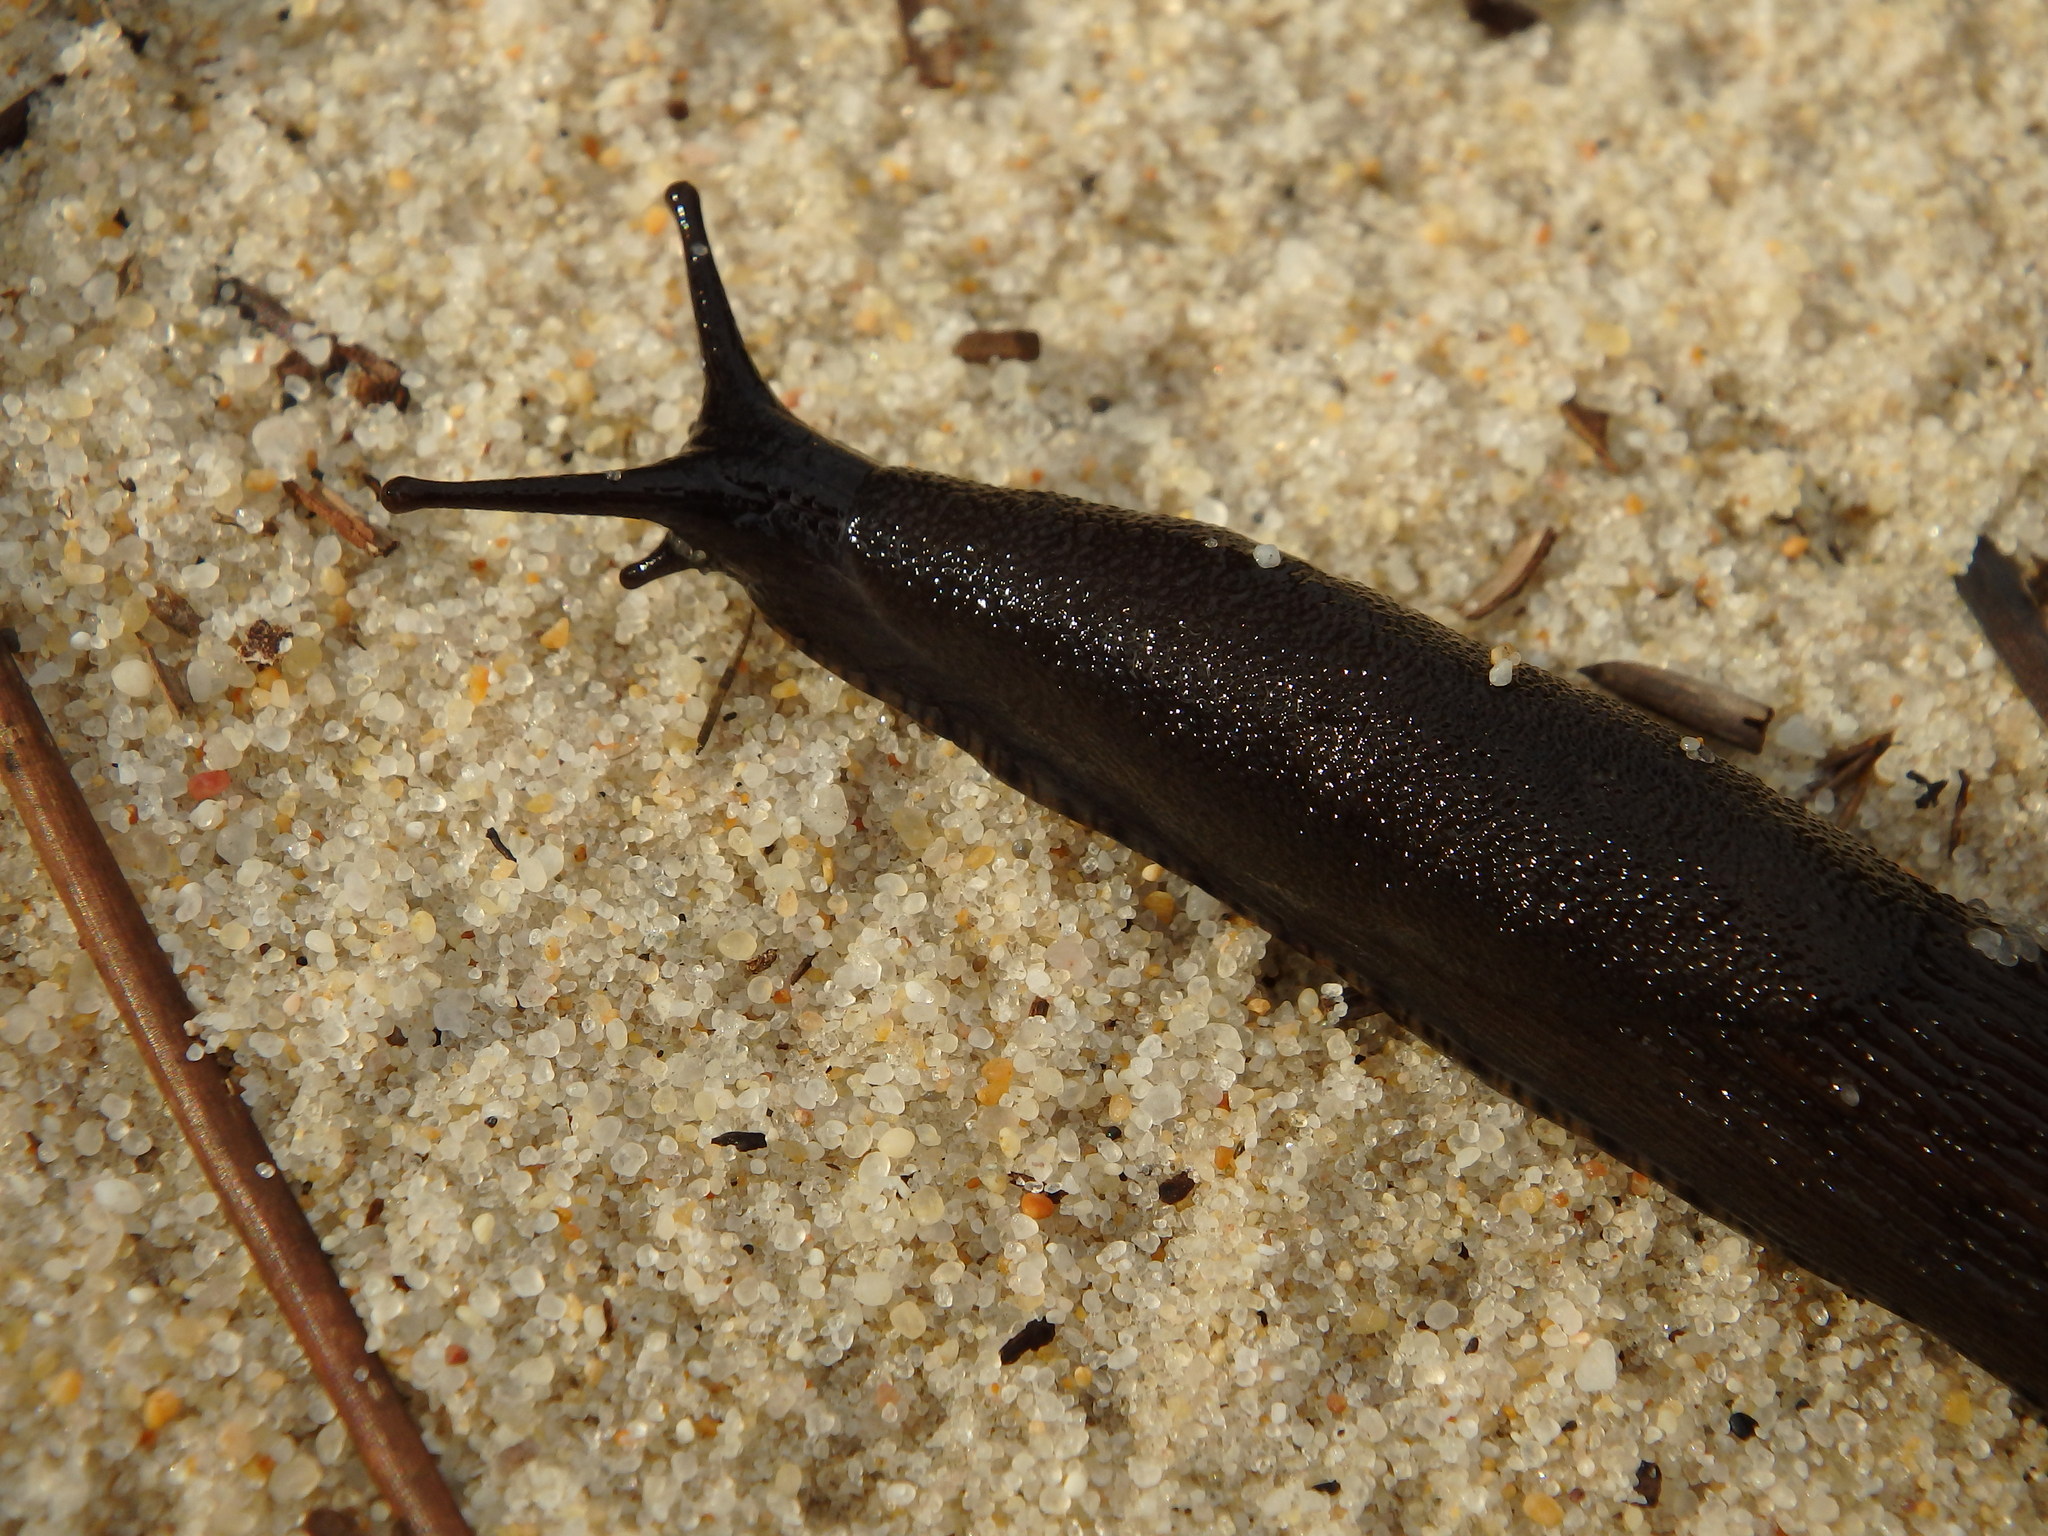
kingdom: Animalia
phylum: Mollusca
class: Gastropoda
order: Stylommatophora
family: Arionidae
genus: Arion
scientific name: Arion ater
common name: Black arion
